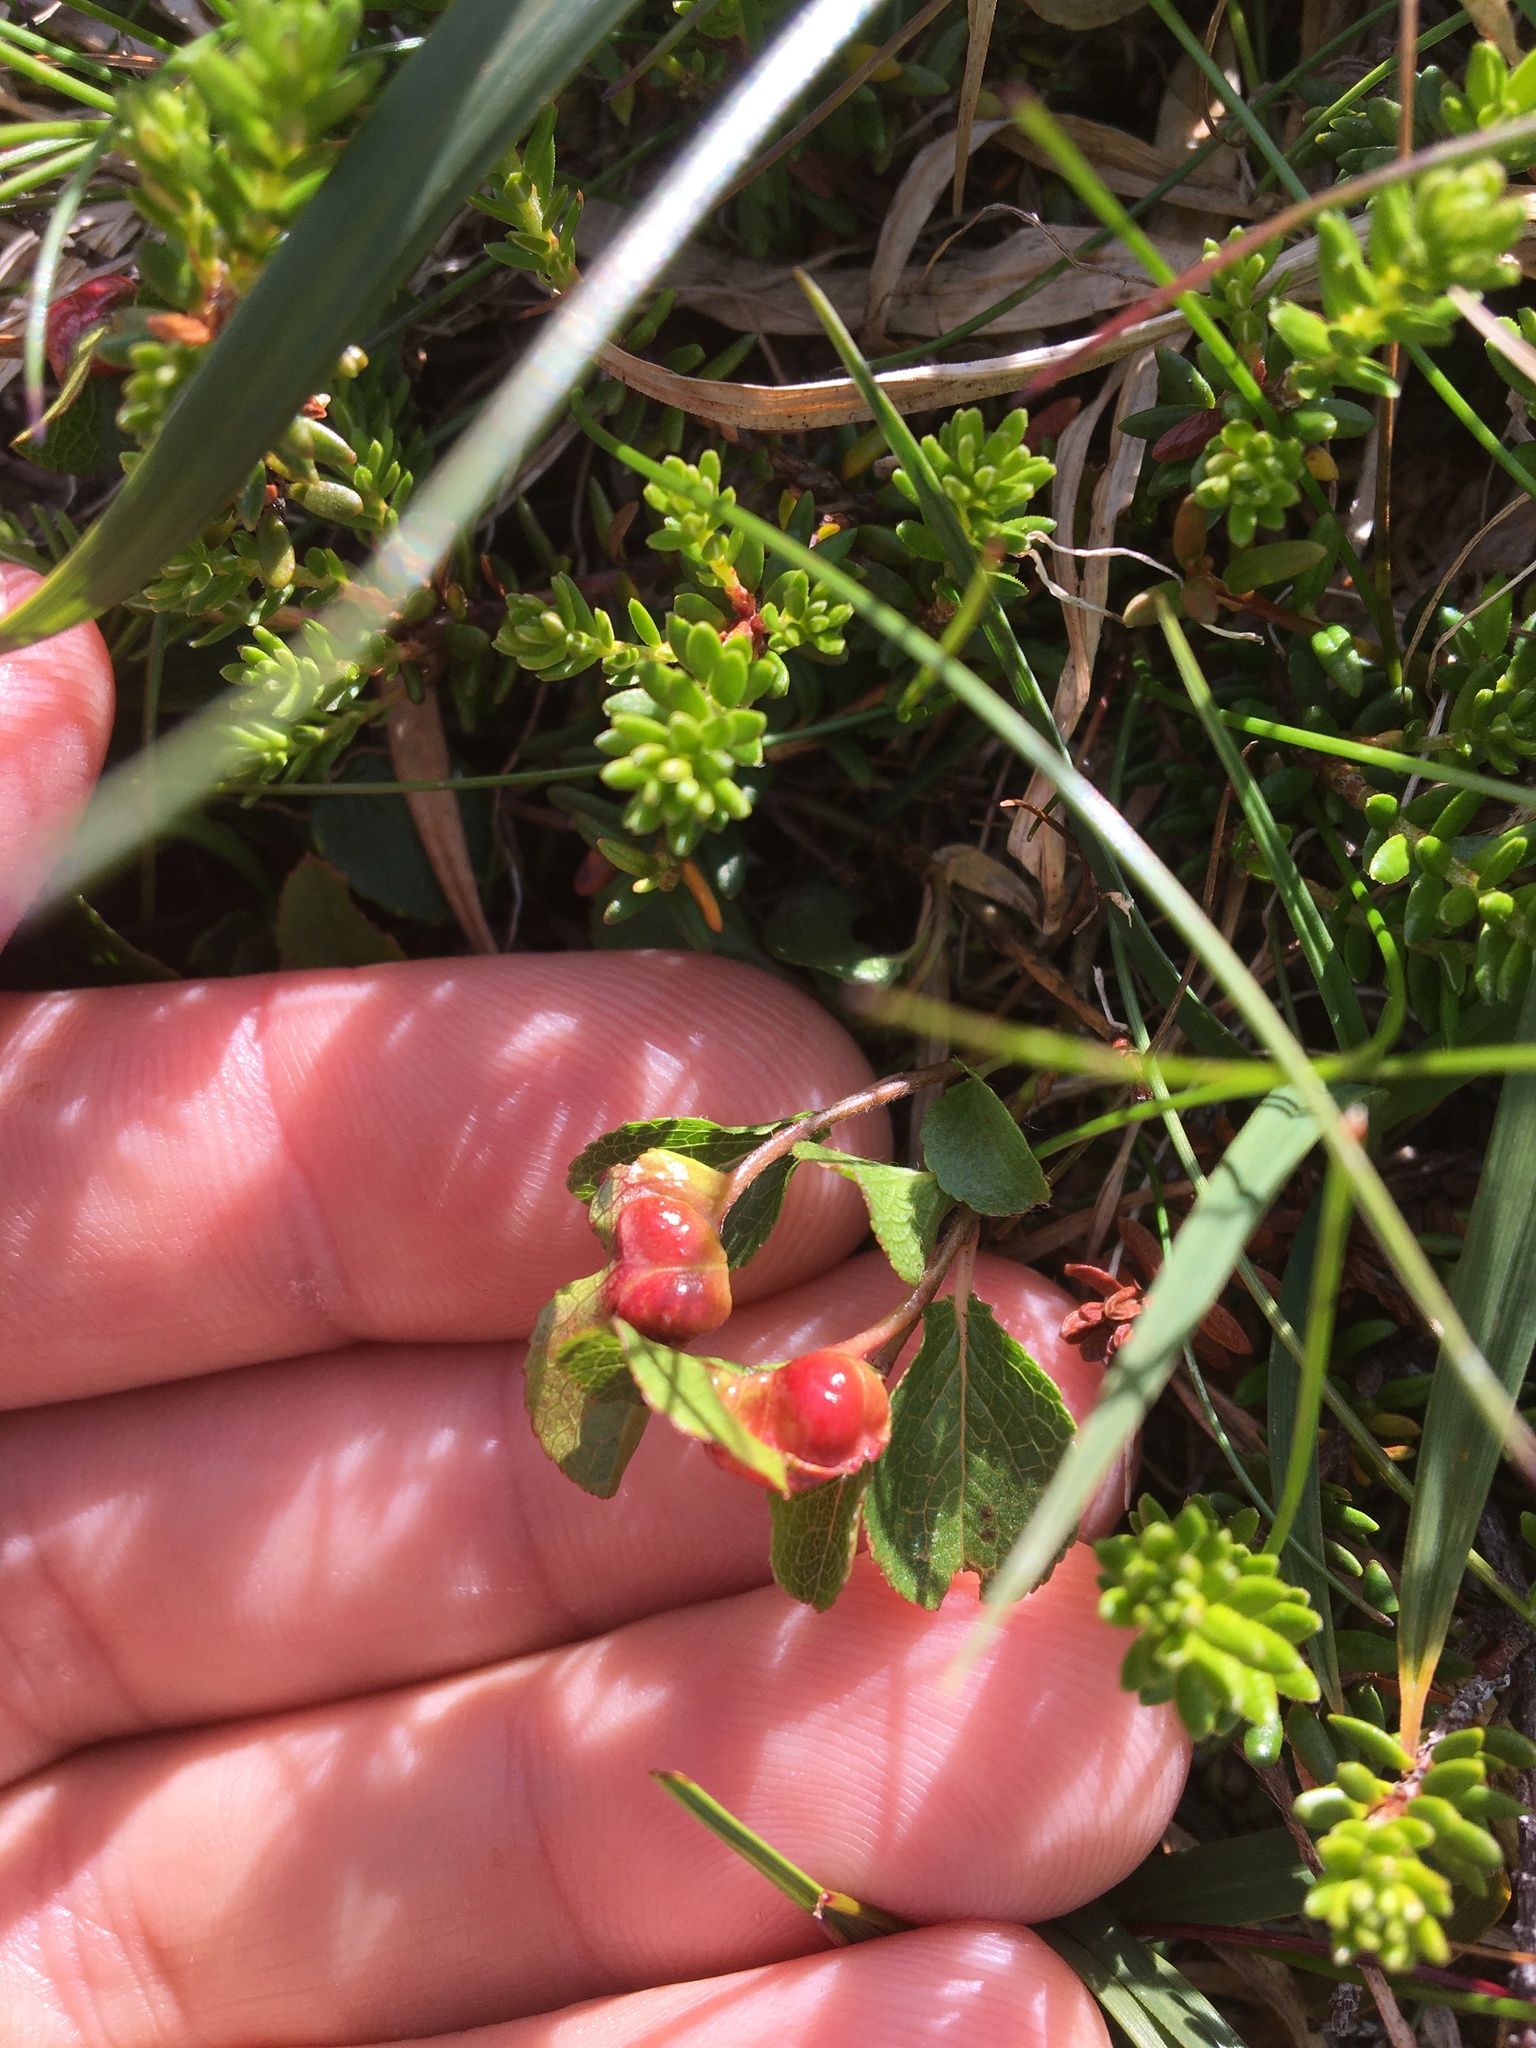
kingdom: Plantae
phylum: Tracheophyta
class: Magnoliopsida
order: Ericales
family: Ericaceae
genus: Vaccinium
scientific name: Vaccinium vitis-idaea
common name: Cowberry
